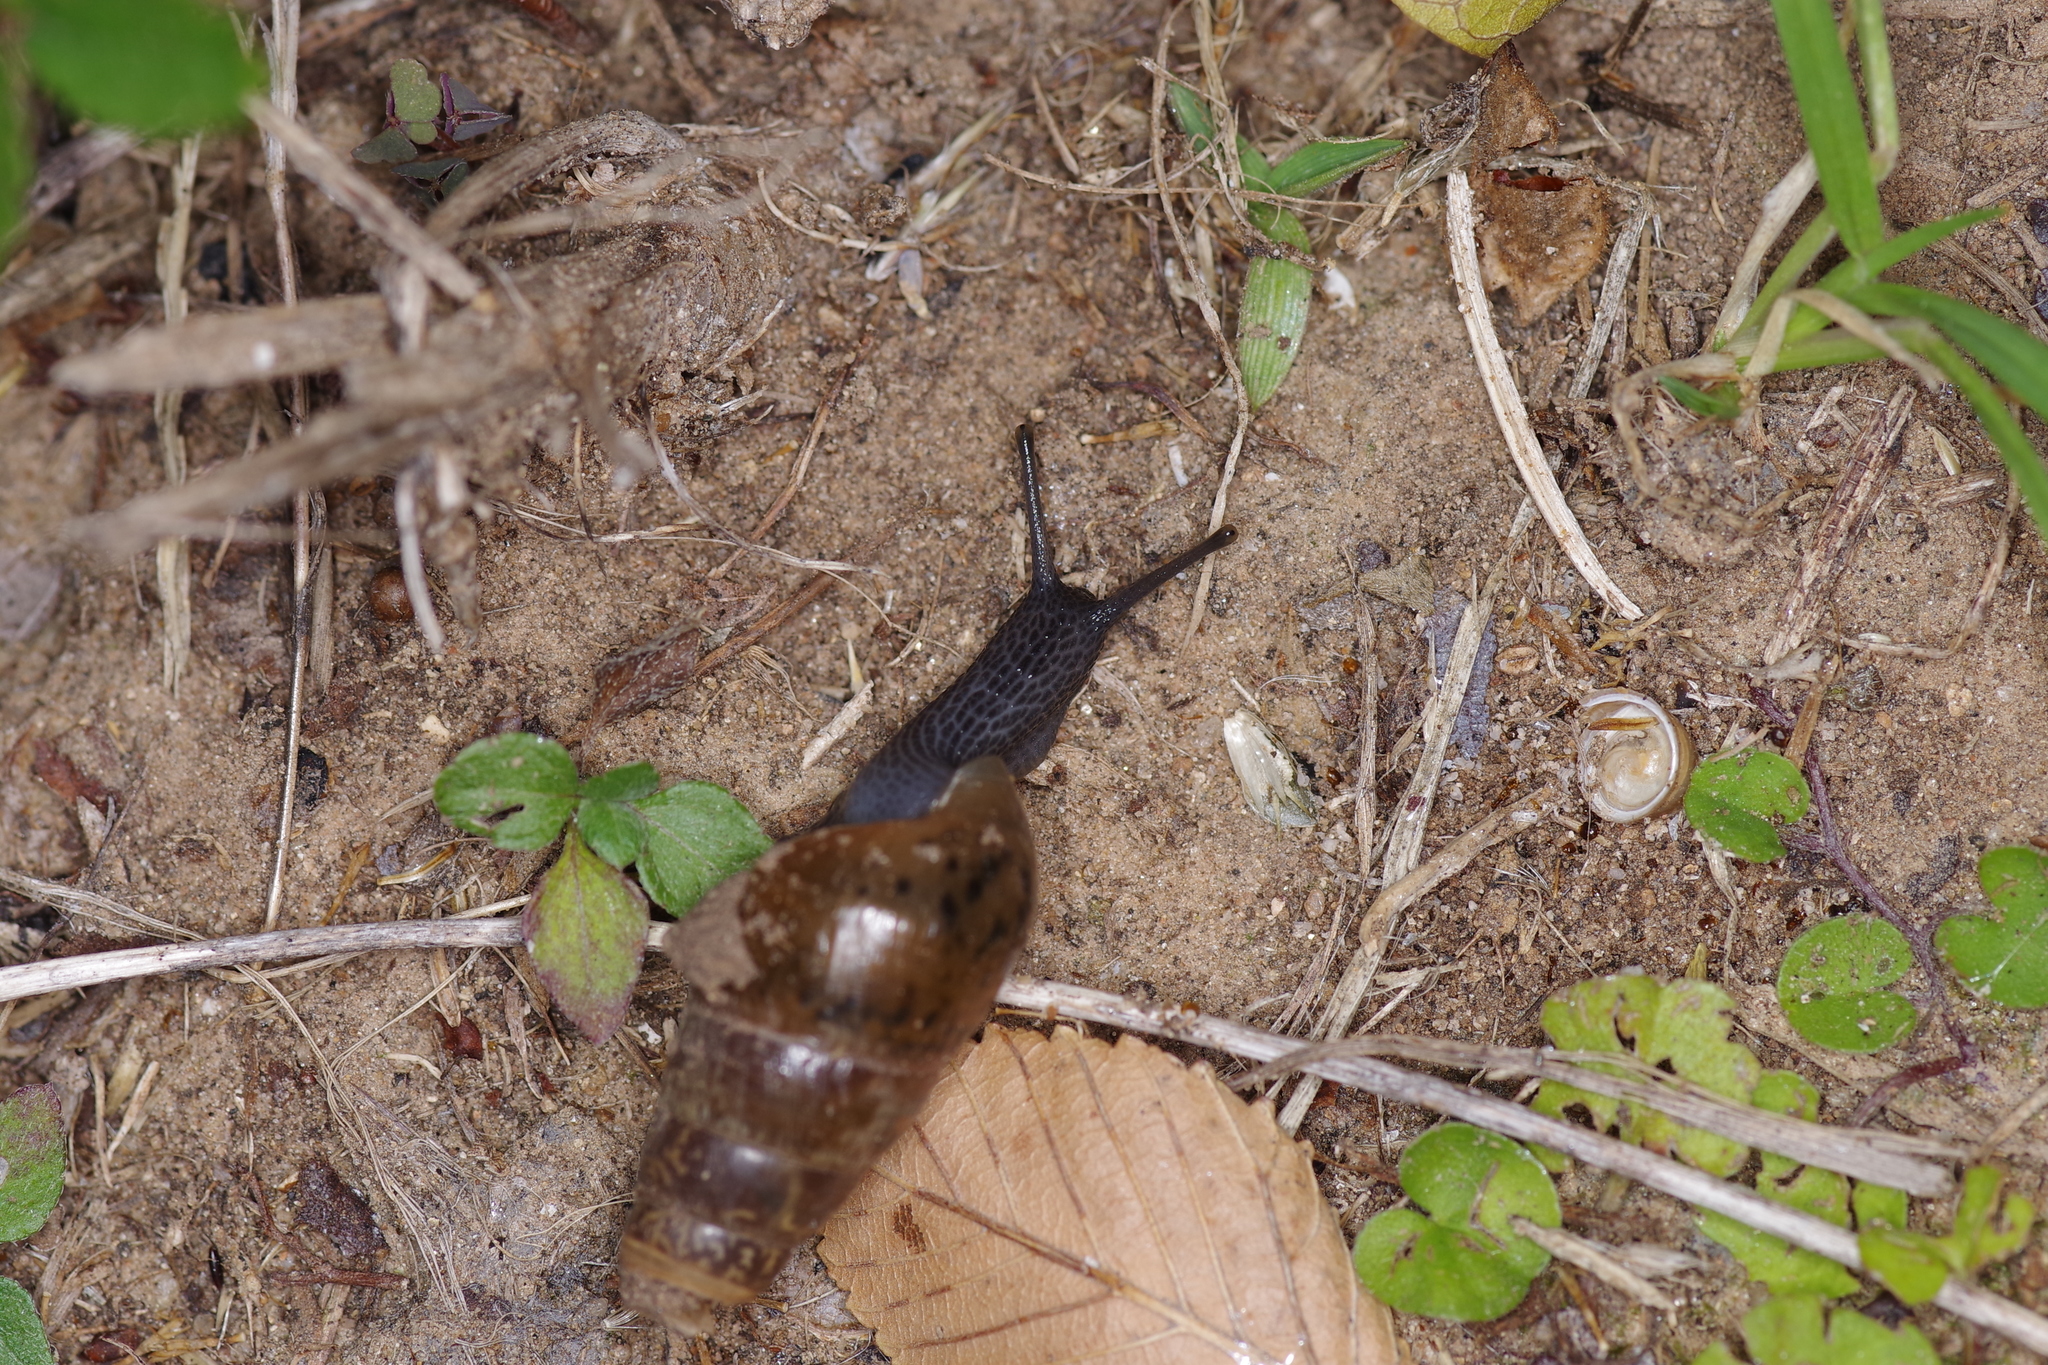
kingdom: Animalia
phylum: Mollusca
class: Gastropoda
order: Stylommatophora
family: Achatinidae
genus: Rumina
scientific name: Rumina decollata
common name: Decollate snail
